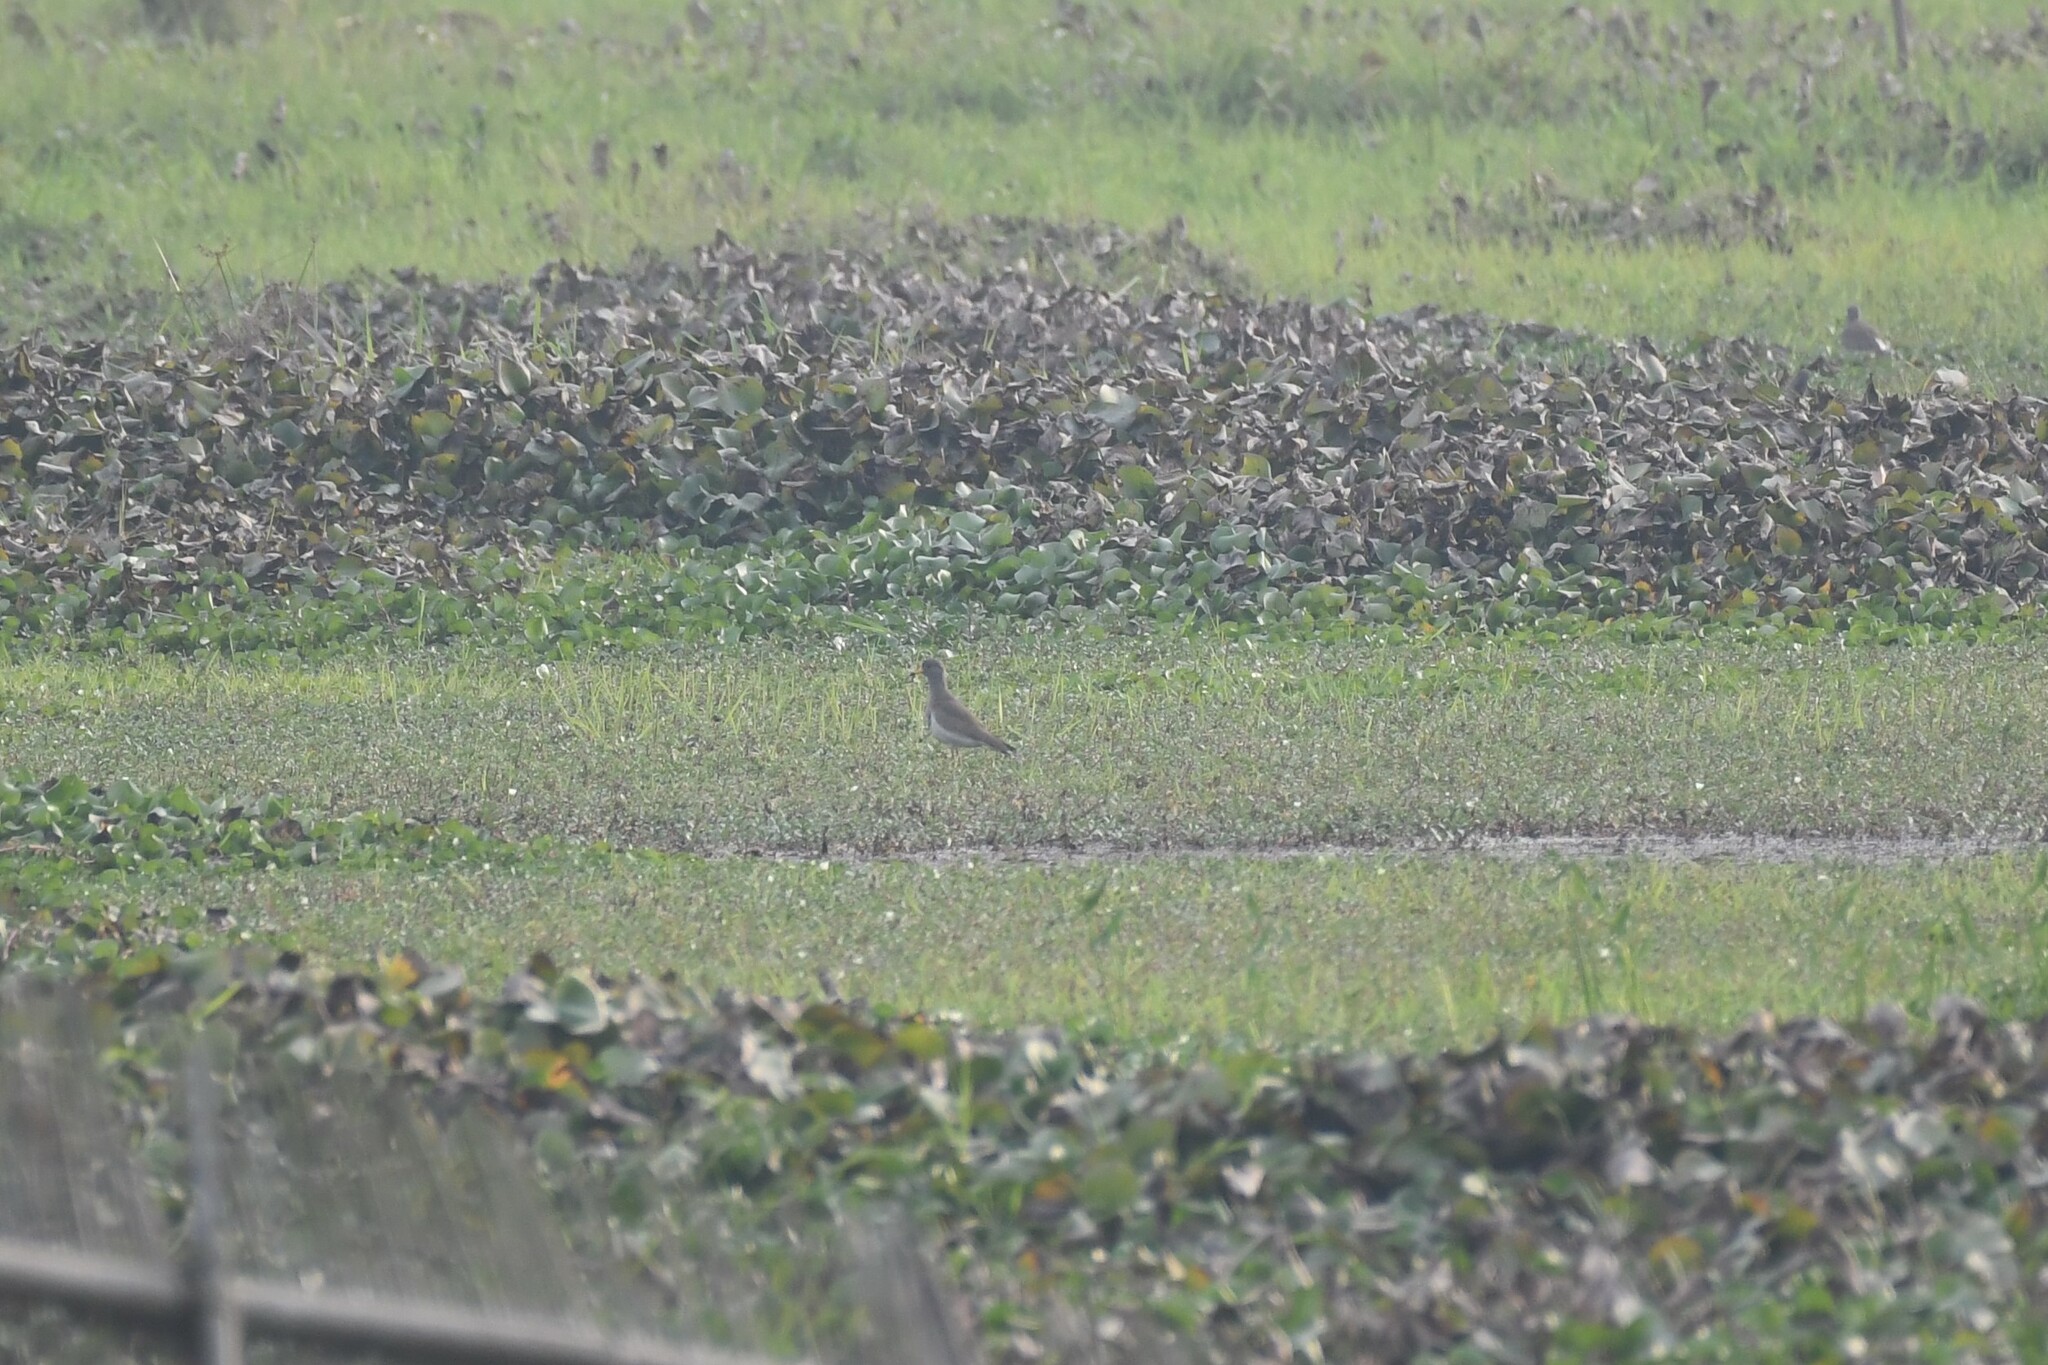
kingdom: Animalia
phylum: Chordata
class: Aves
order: Charadriiformes
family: Charadriidae
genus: Vanellus
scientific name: Vanellus cinereus
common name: Grey-headed lapwing
